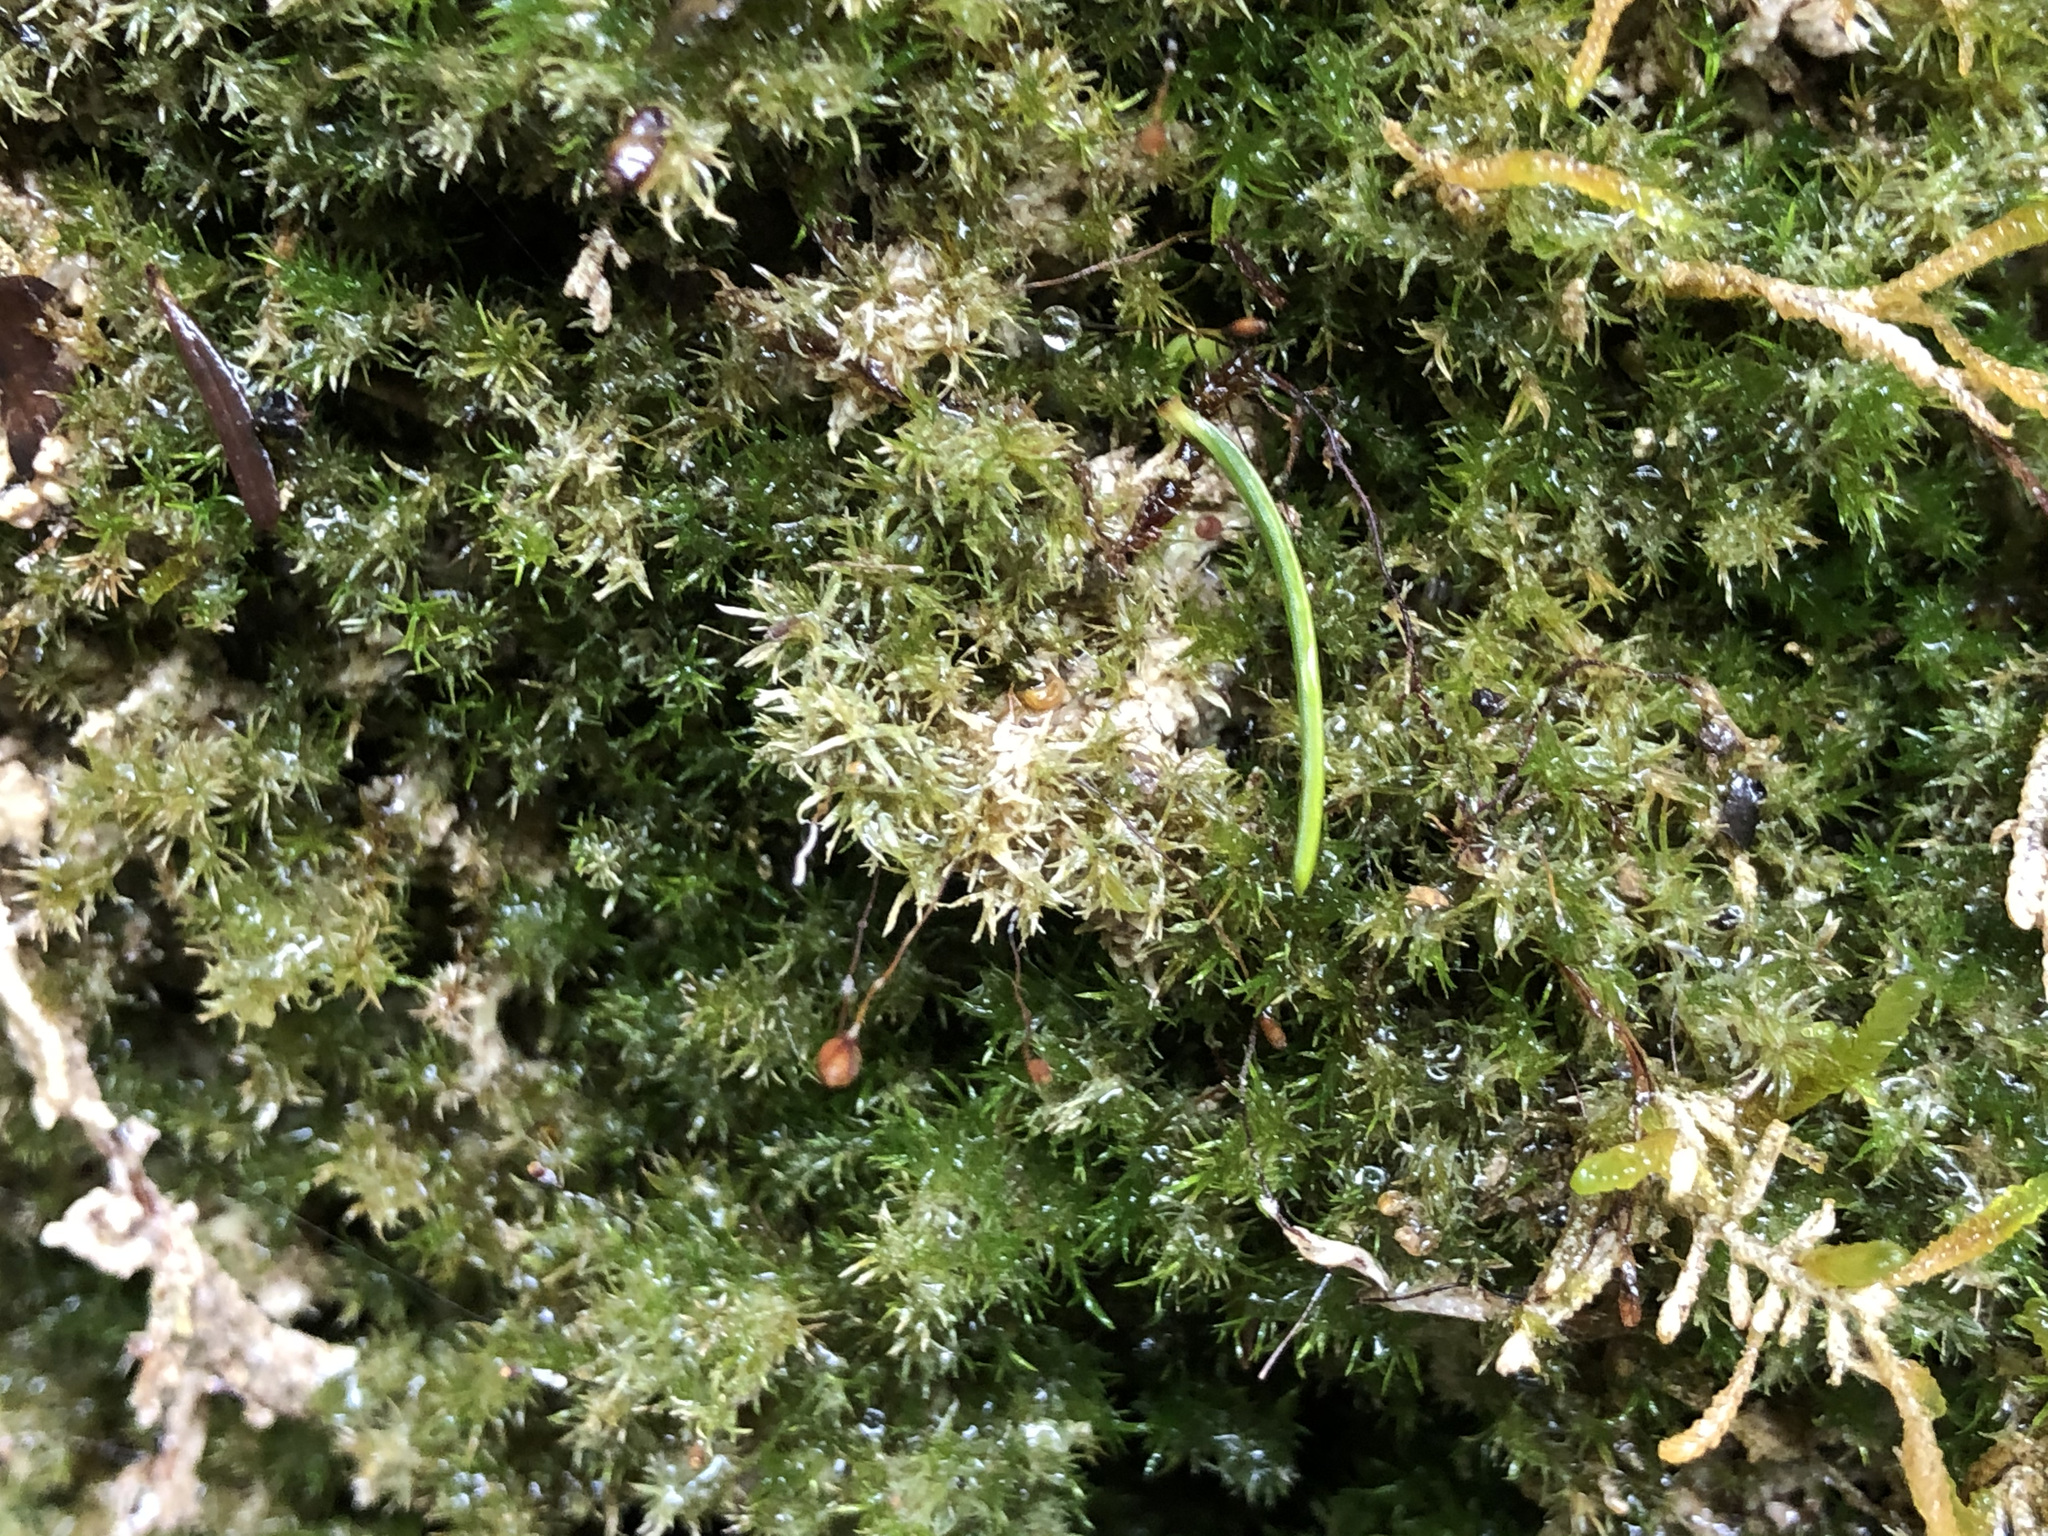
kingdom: Plantae
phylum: Bryophyta
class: Bryopsida
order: Pottiales
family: Pottiaceae
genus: Eucladium
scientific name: Eucladium verticillatum
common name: Whorled tufa-moss
